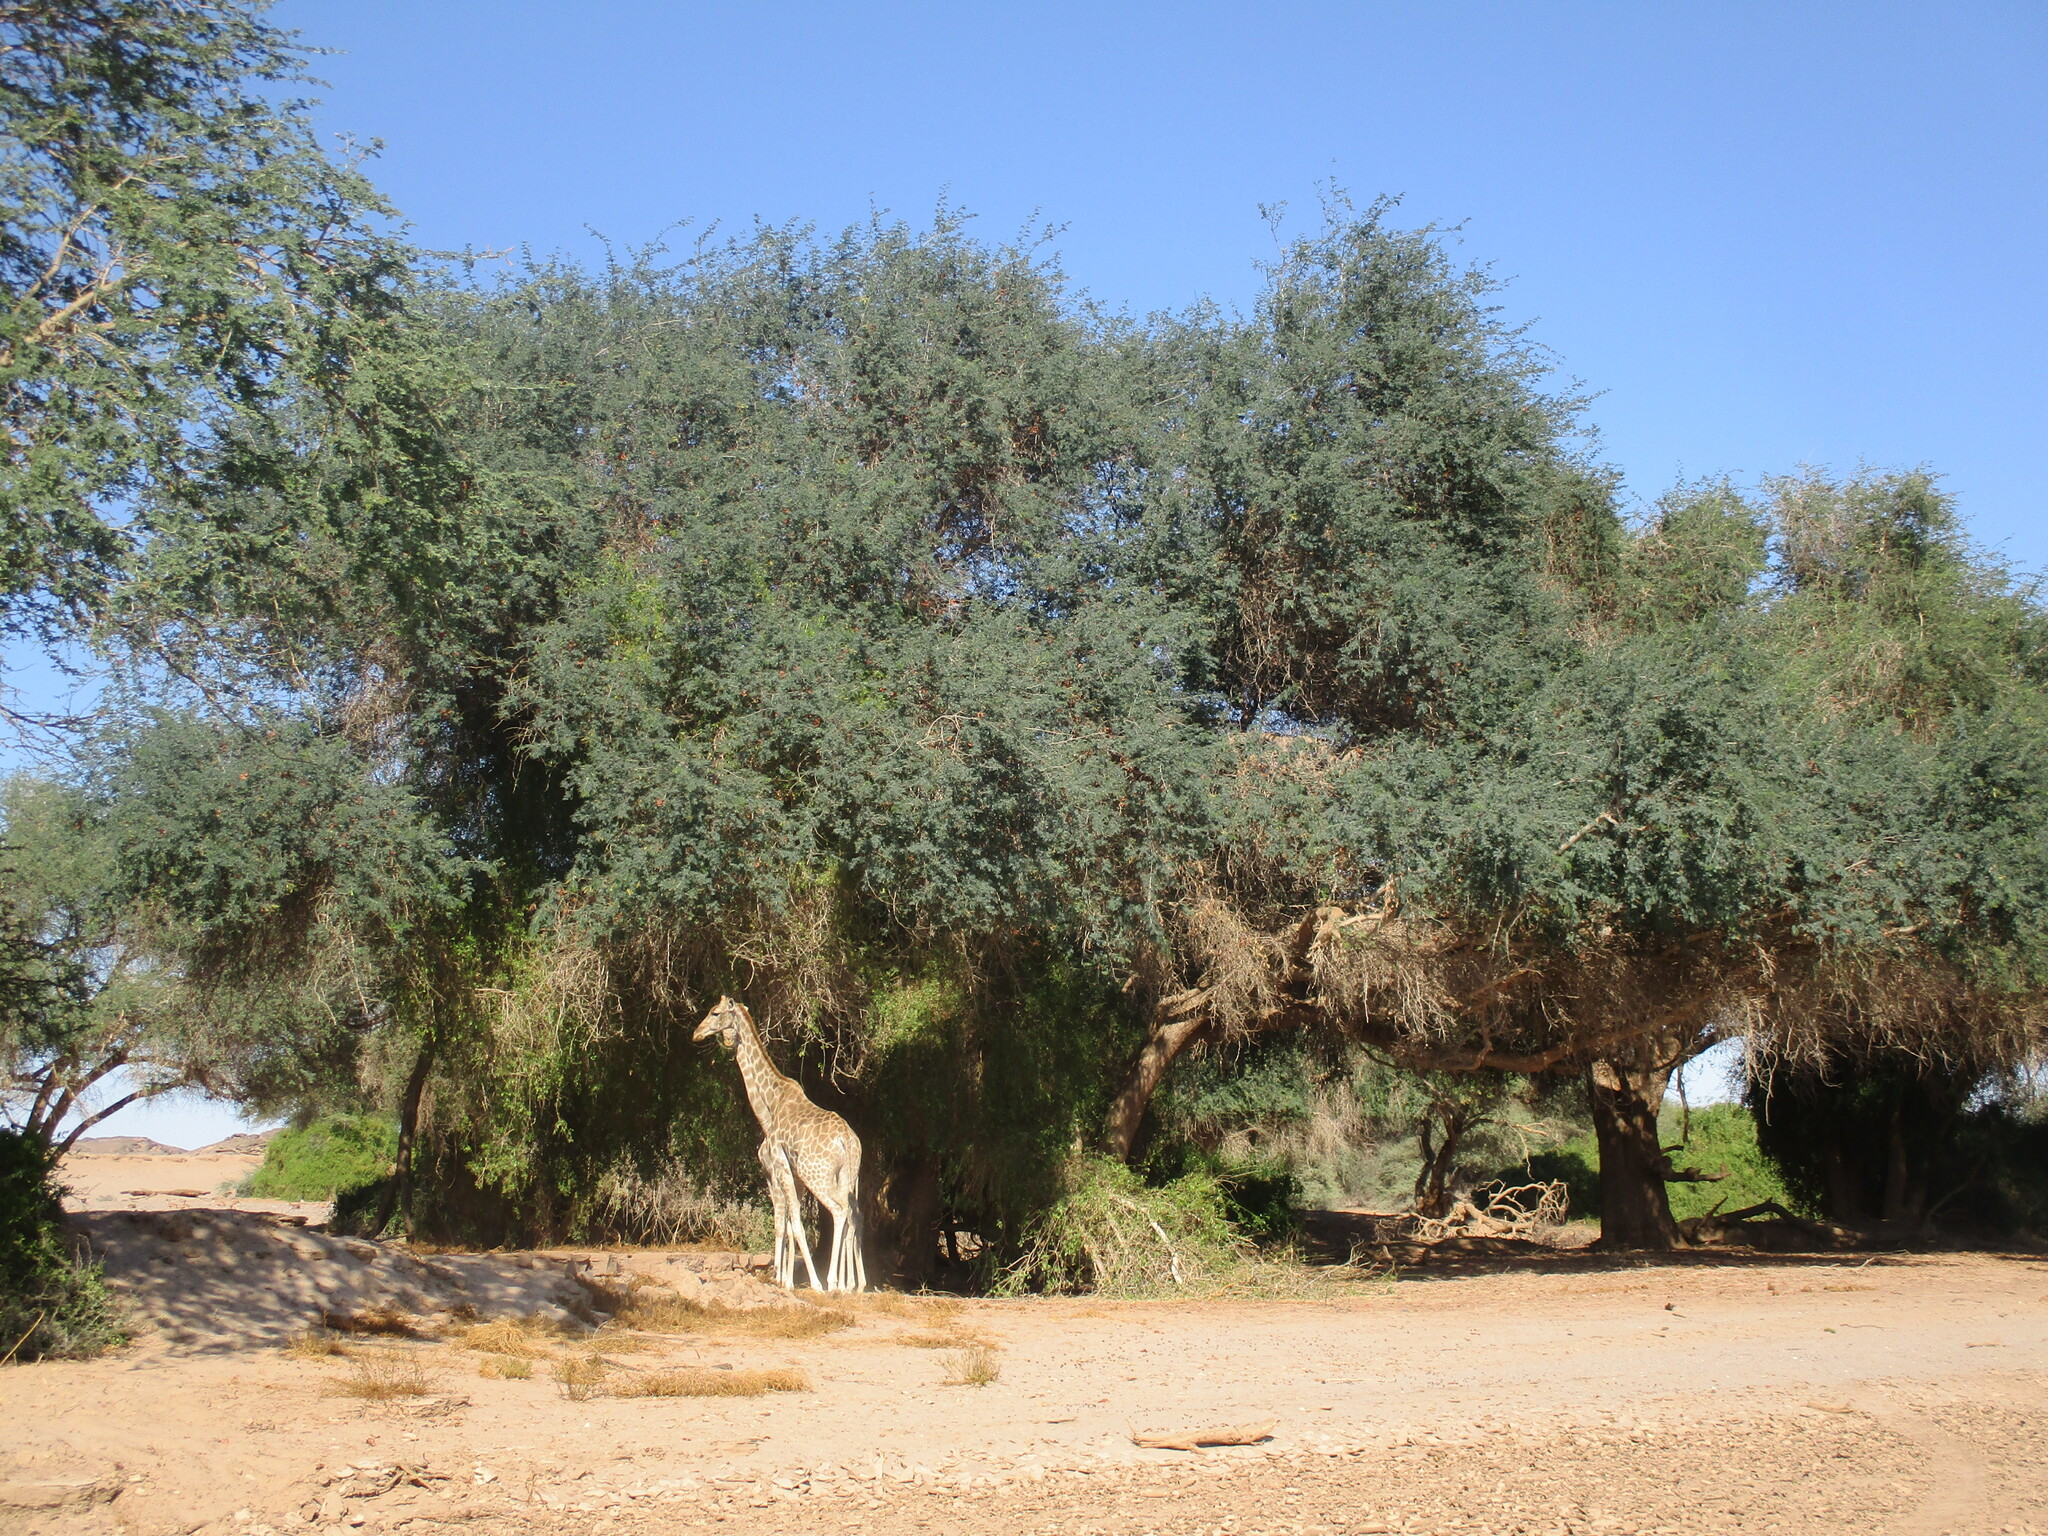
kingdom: Plantae
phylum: Tracheophyta
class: Magnoliopsida
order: Fabales
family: Fabaceae
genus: Faidherbia
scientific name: Faidherbia albida
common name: Anatree
